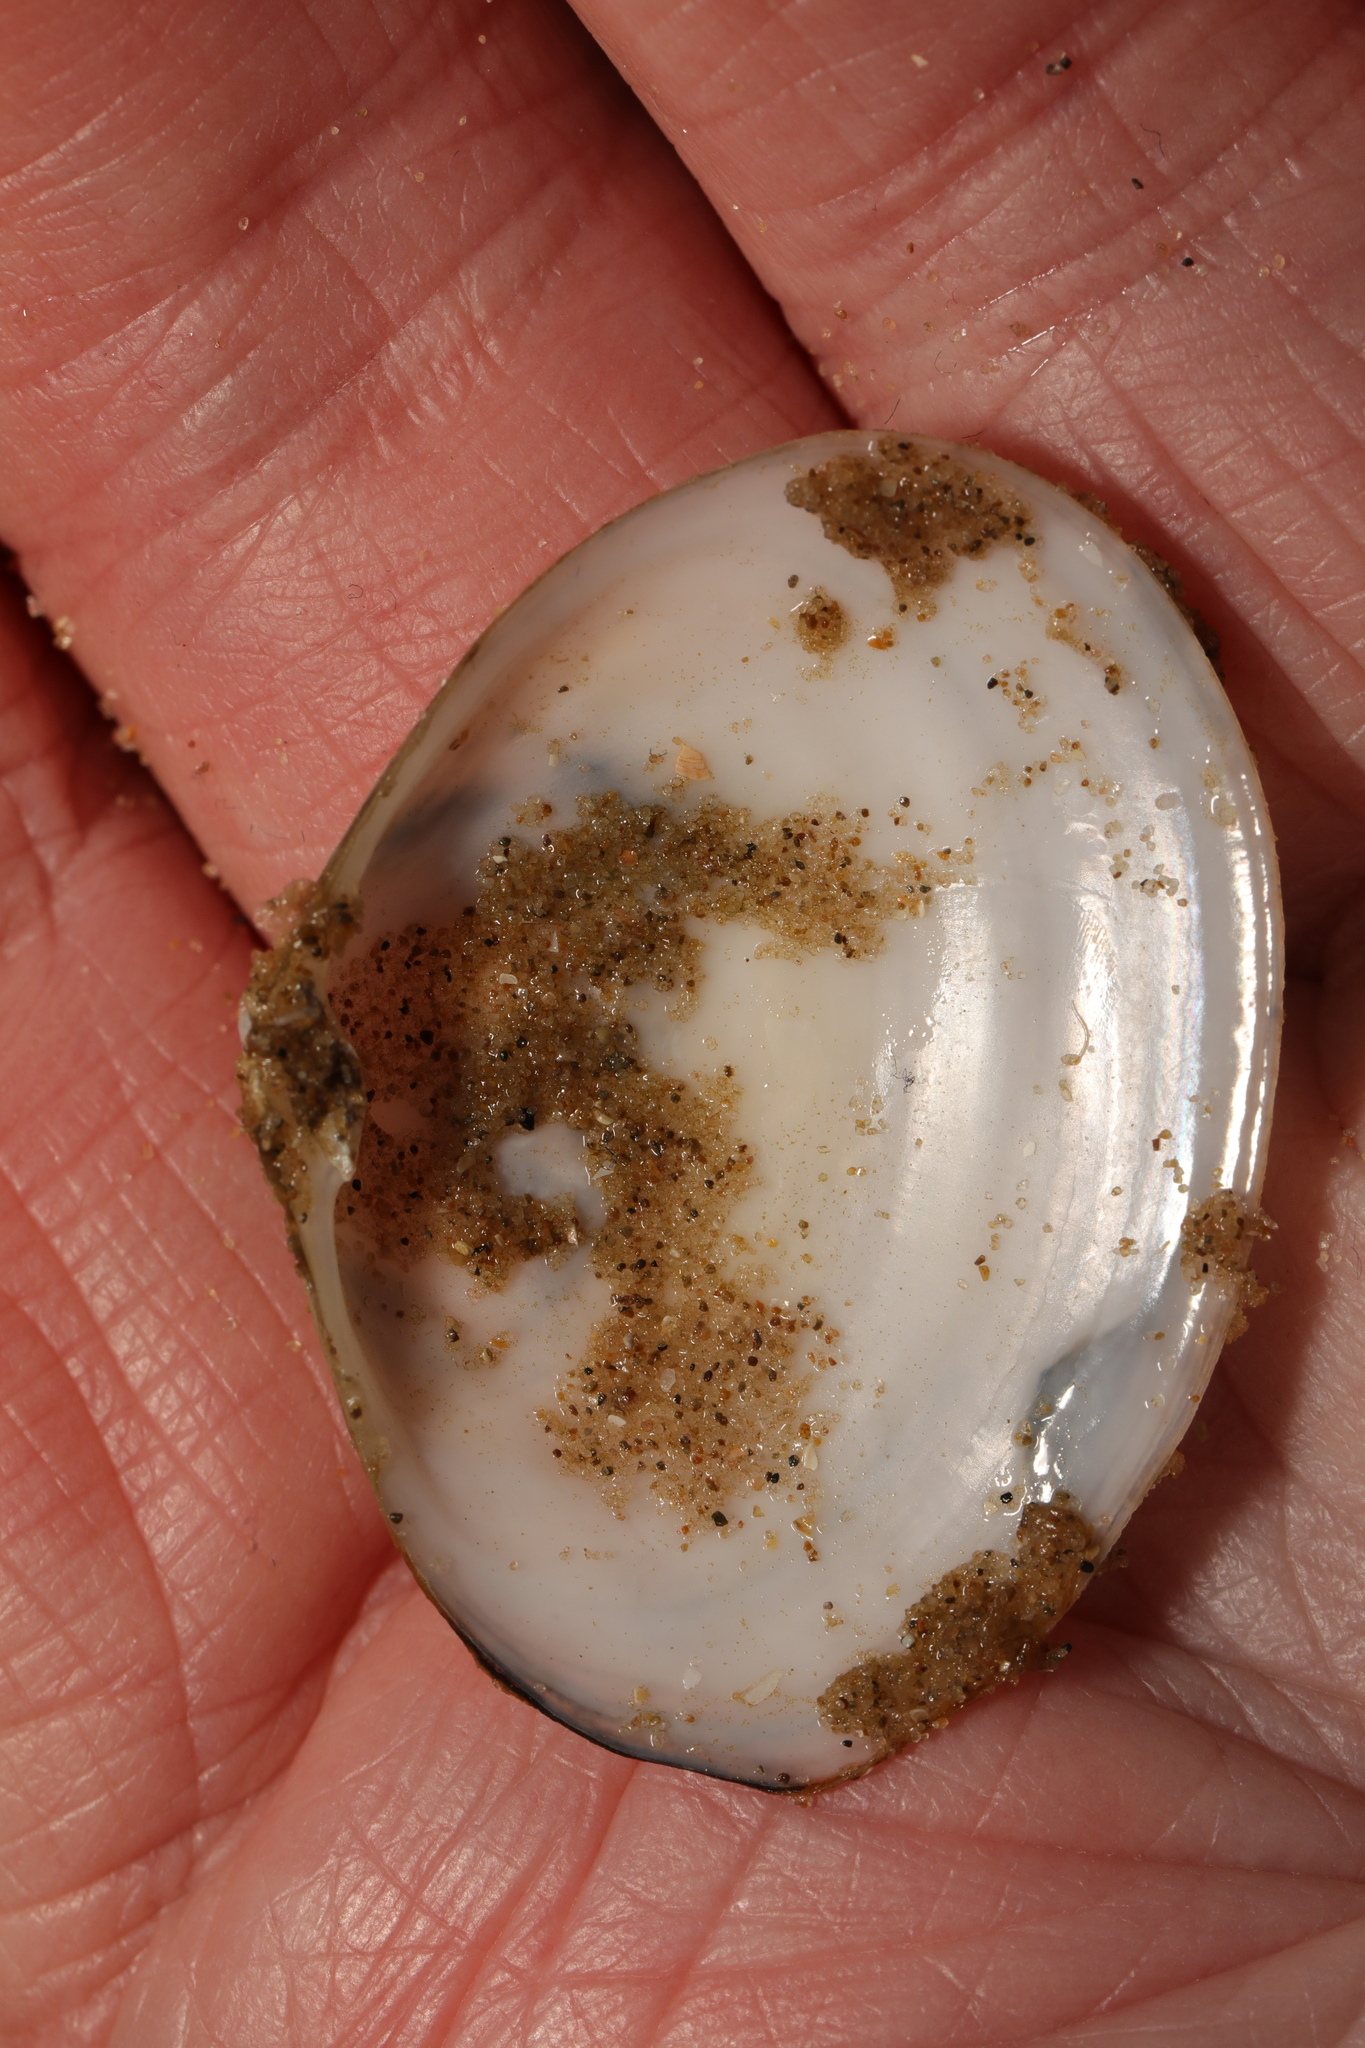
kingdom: Animalia
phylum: Mollusca
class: Bivalvia
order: Cardiida
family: Semelidae
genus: Scrobicularia
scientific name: Scrobicularia plana
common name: Peppery furrow shell
